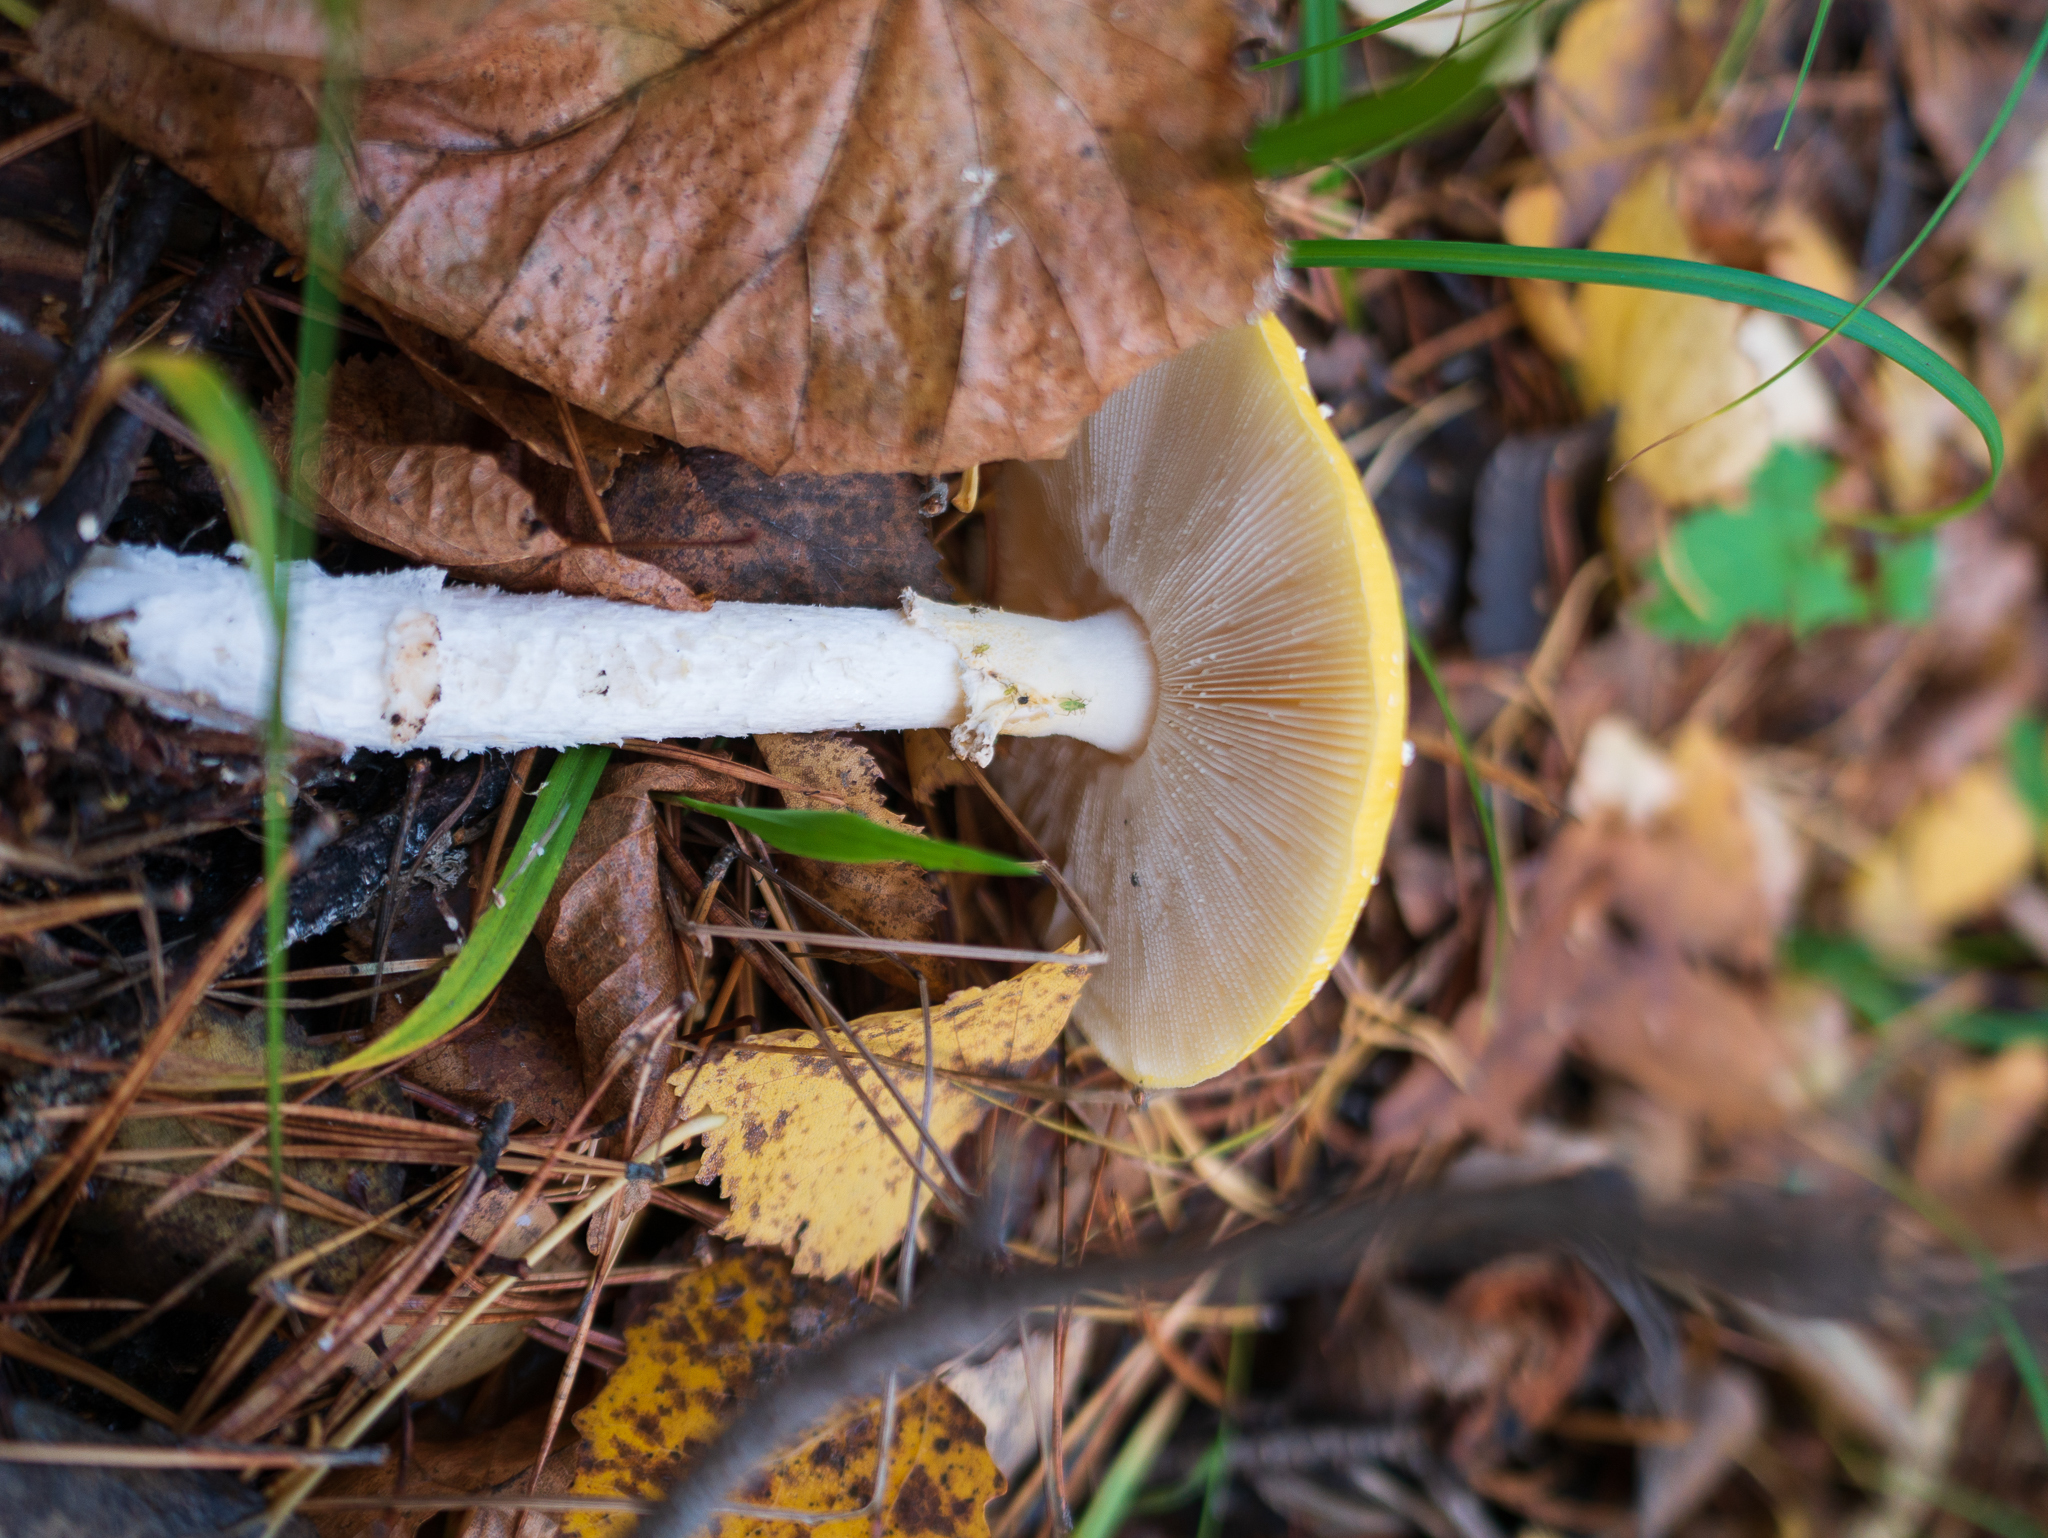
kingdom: Fungi
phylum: Basidiomycota
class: Agaricomycetes
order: Agaricales
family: Amanitaceae
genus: Amanita
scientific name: Amanita muscaria
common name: Fly agaric
